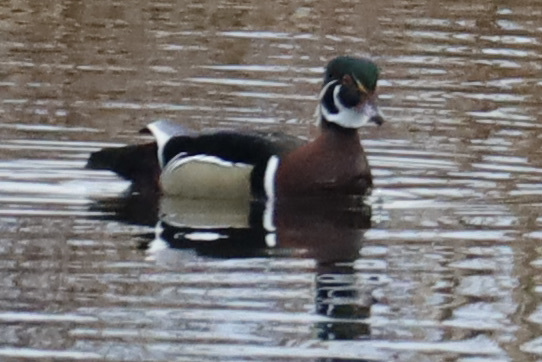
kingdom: Animalia
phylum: Chordata
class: Aves
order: Anseriformes
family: Anatidae
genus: Aix
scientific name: Aix sponsa
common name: Wood duck
